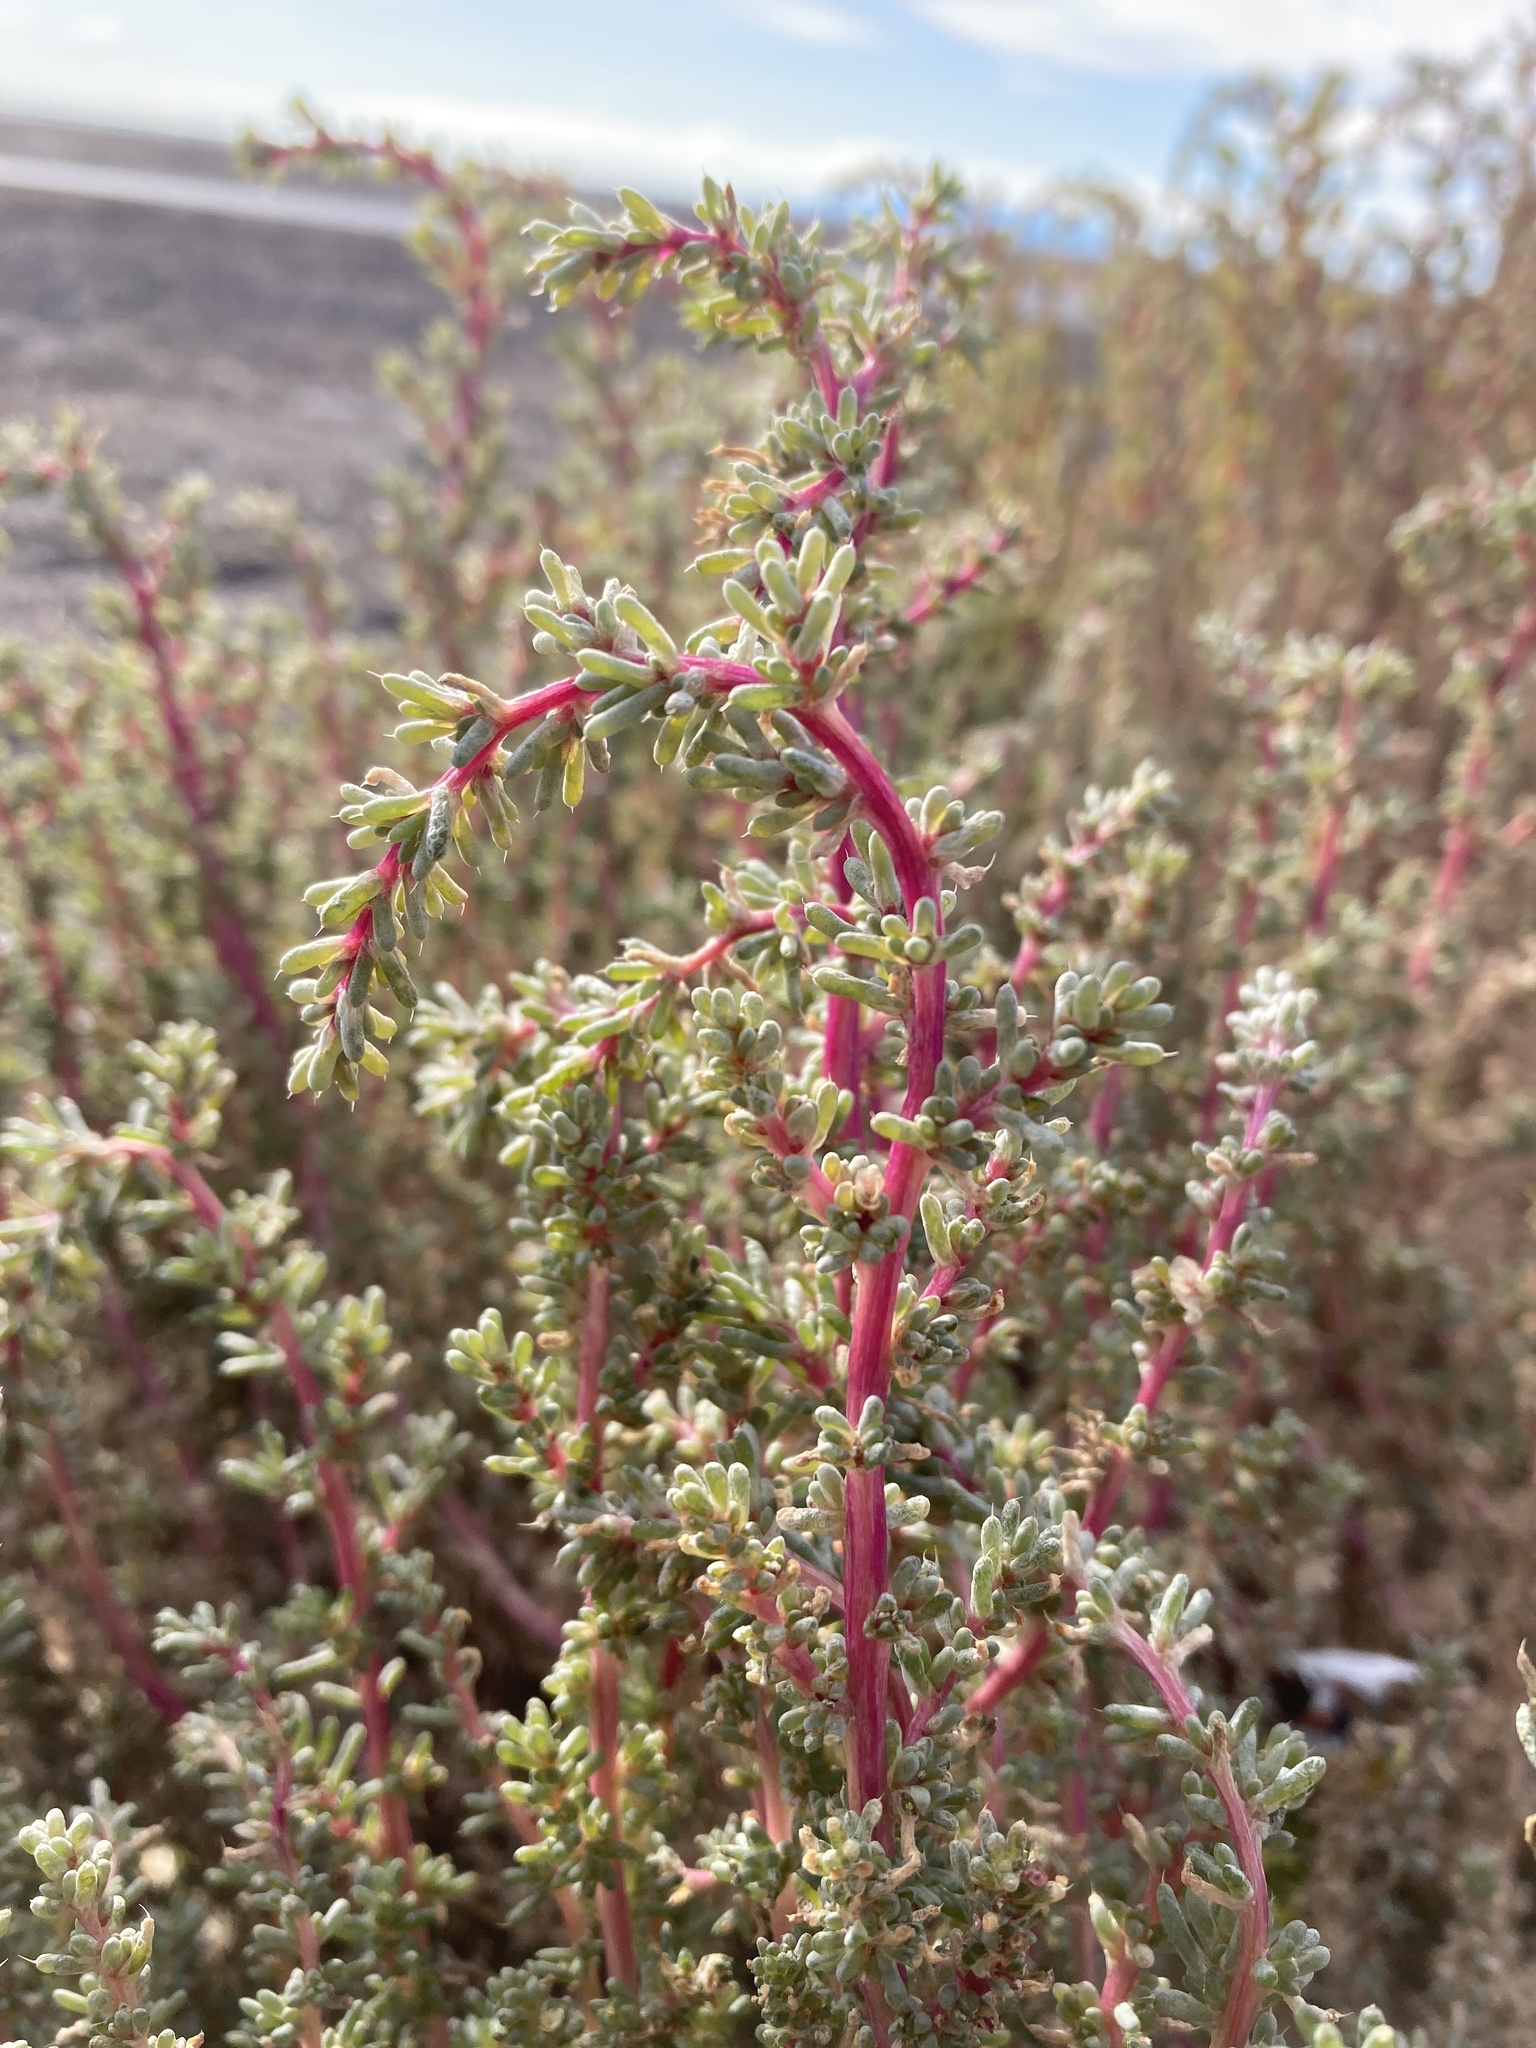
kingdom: Plantae
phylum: Tracheophyta
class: Magnoliopsida
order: Caryophyllales
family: Amaranthaceae
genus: Halogeton
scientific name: Halogeton glomeratus
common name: Saltlover
